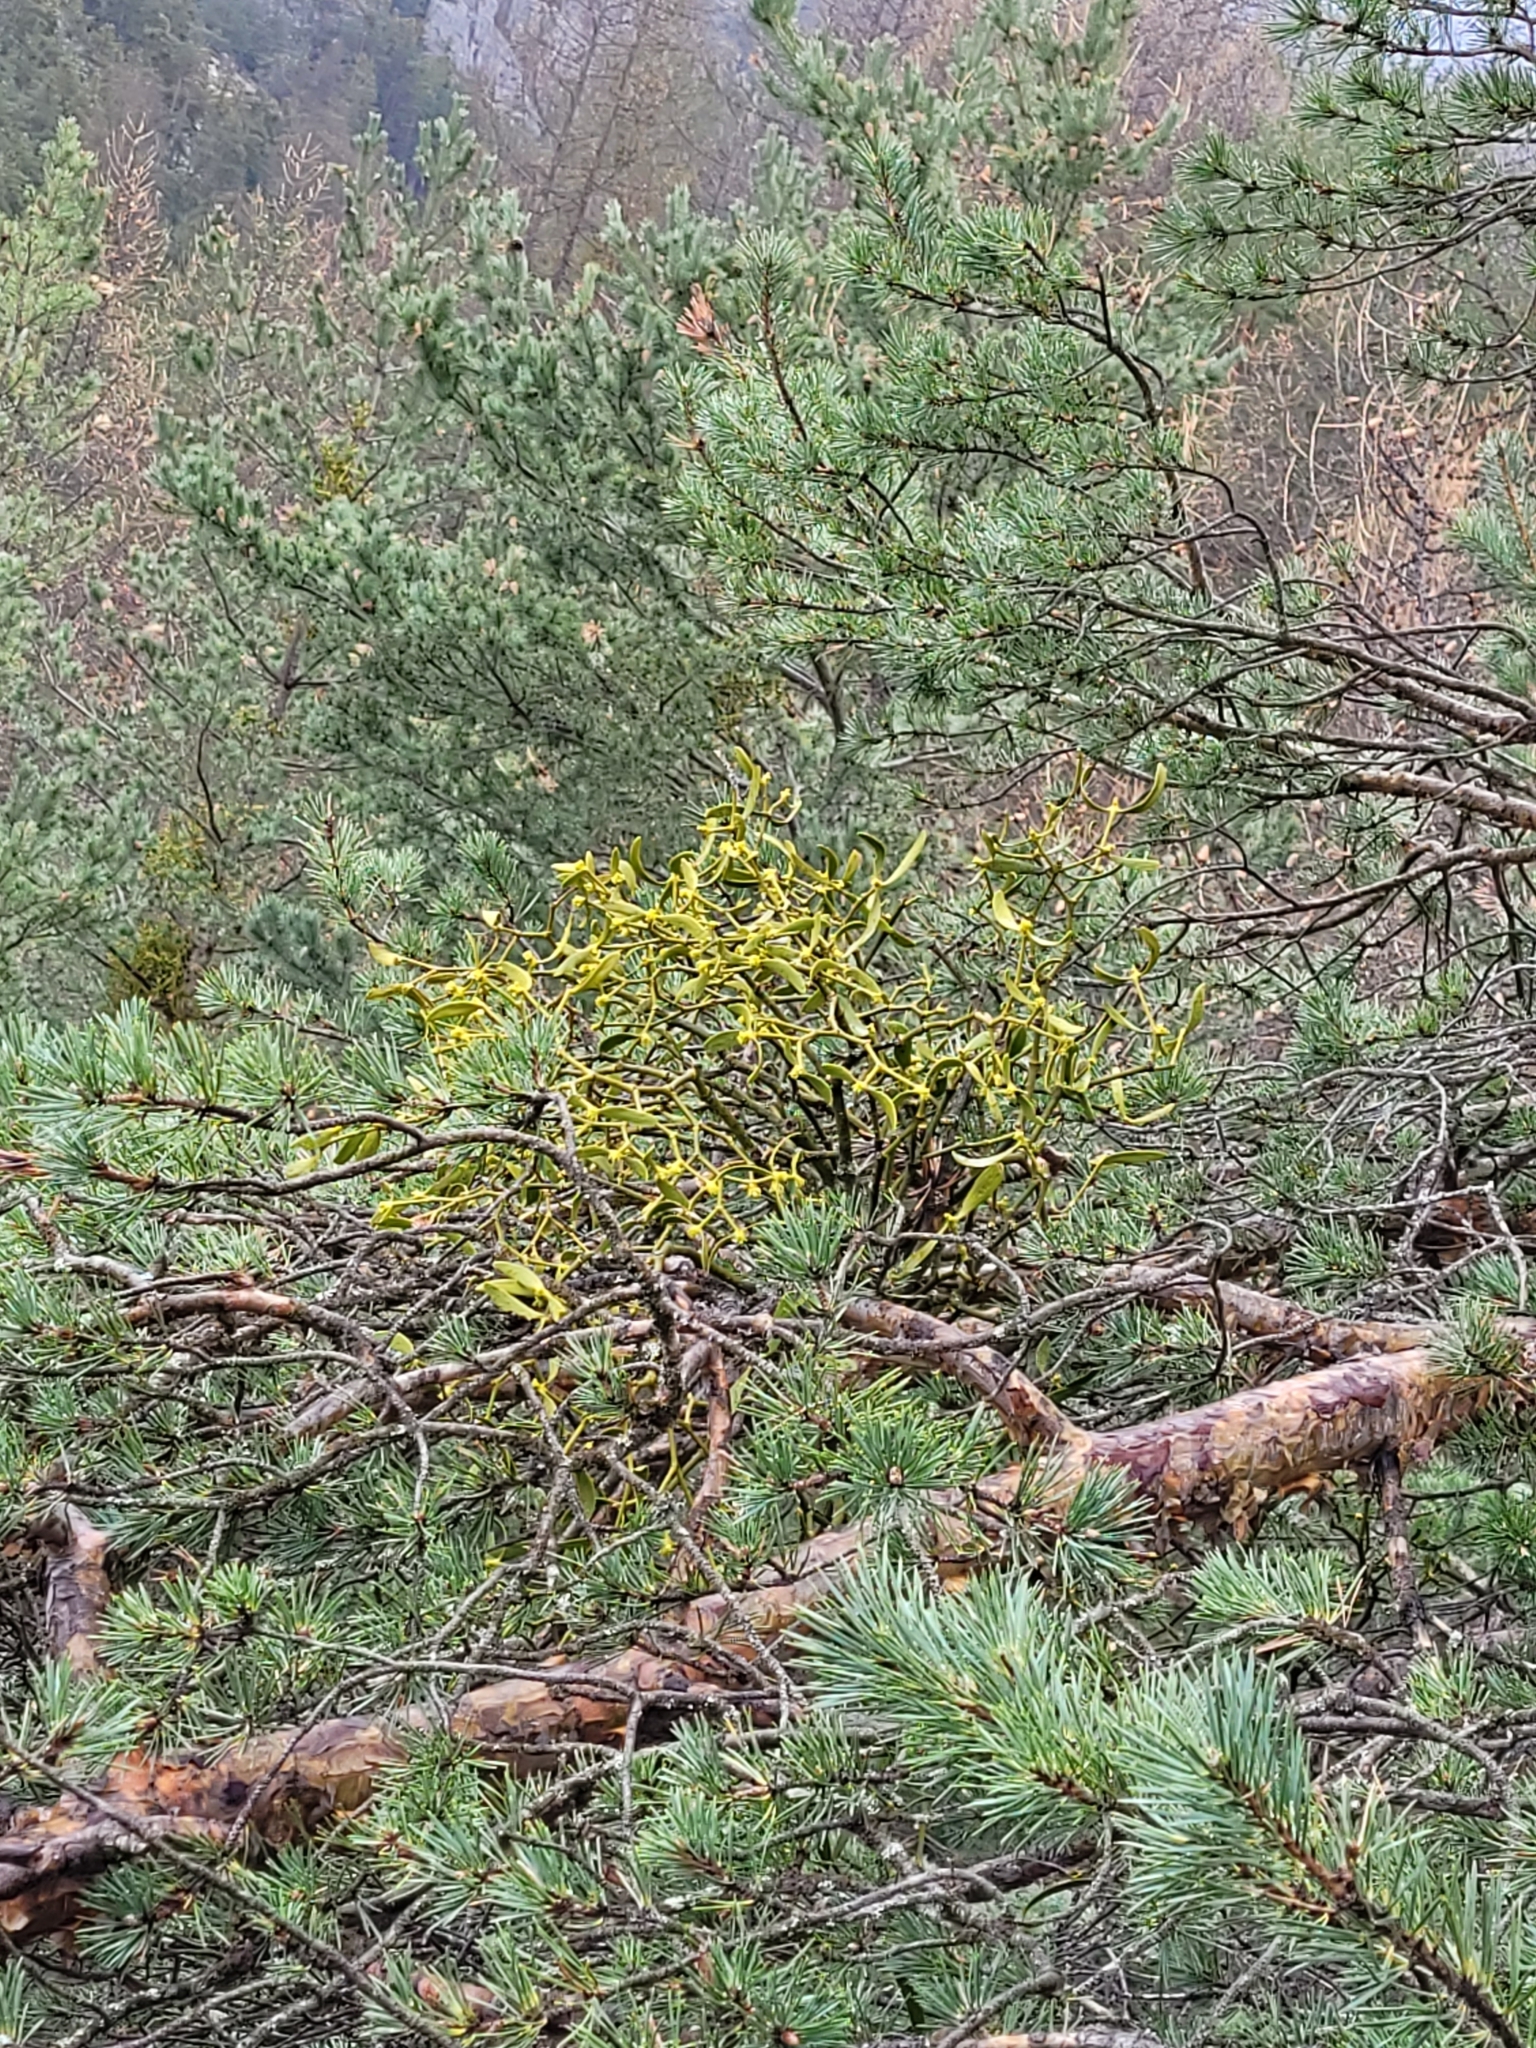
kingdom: Plantae
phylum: Tracheophyta
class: Magnoliopsida
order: Santalales
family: Viscaceae
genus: Viscum
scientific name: Viscum album
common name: Mistletoe
